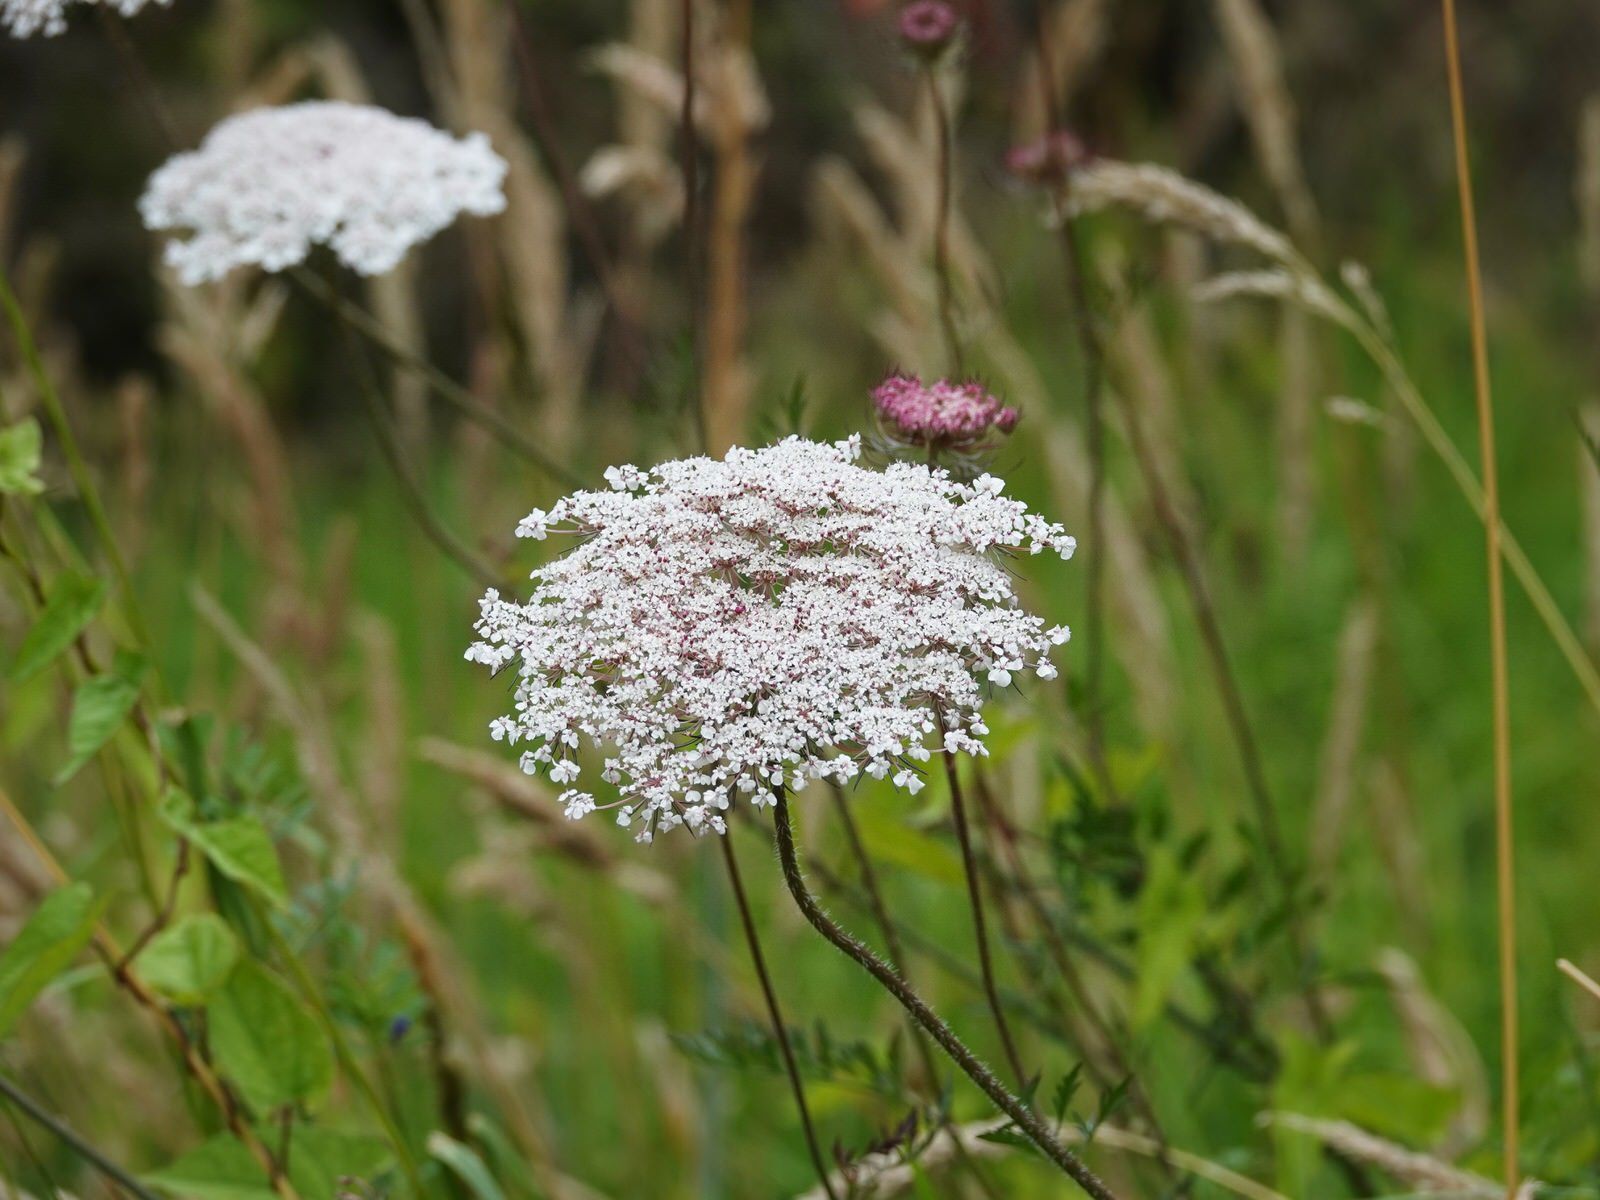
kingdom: Plantae
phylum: Tracheophyta
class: Magnoliopsida
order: Apiales
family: Apiaceae
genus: Daucus
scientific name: Daucus carota
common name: Wild carrot
